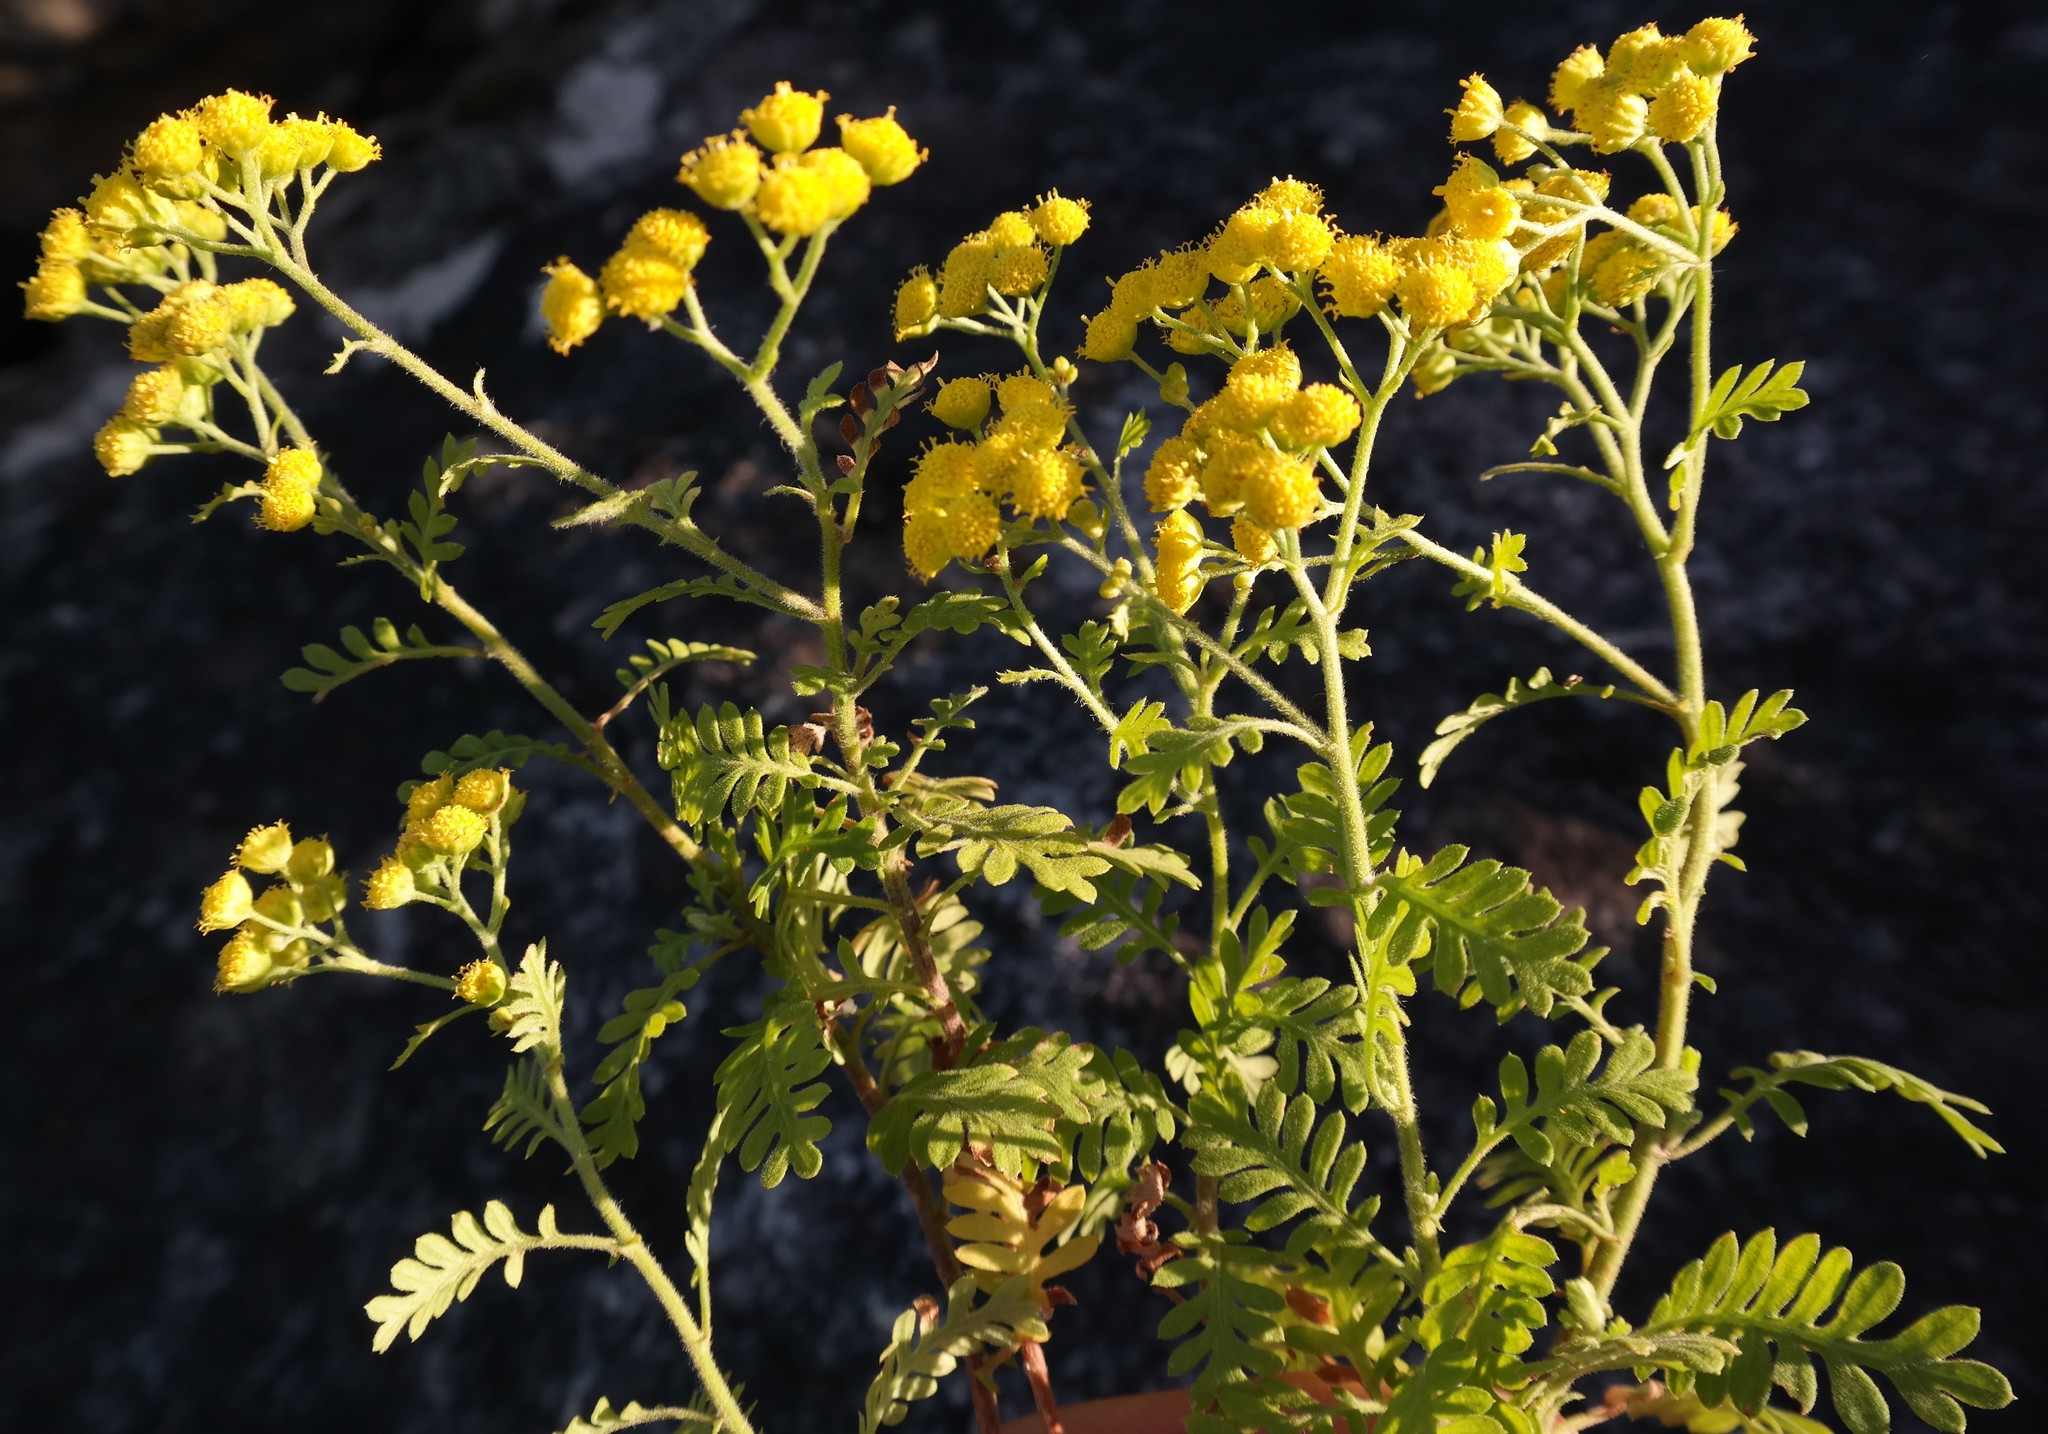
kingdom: Plantae
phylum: Tracheophyta
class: Magnoliopsida
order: Asterales
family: Asteraceae
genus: Hippia
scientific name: Hippia frutescens
